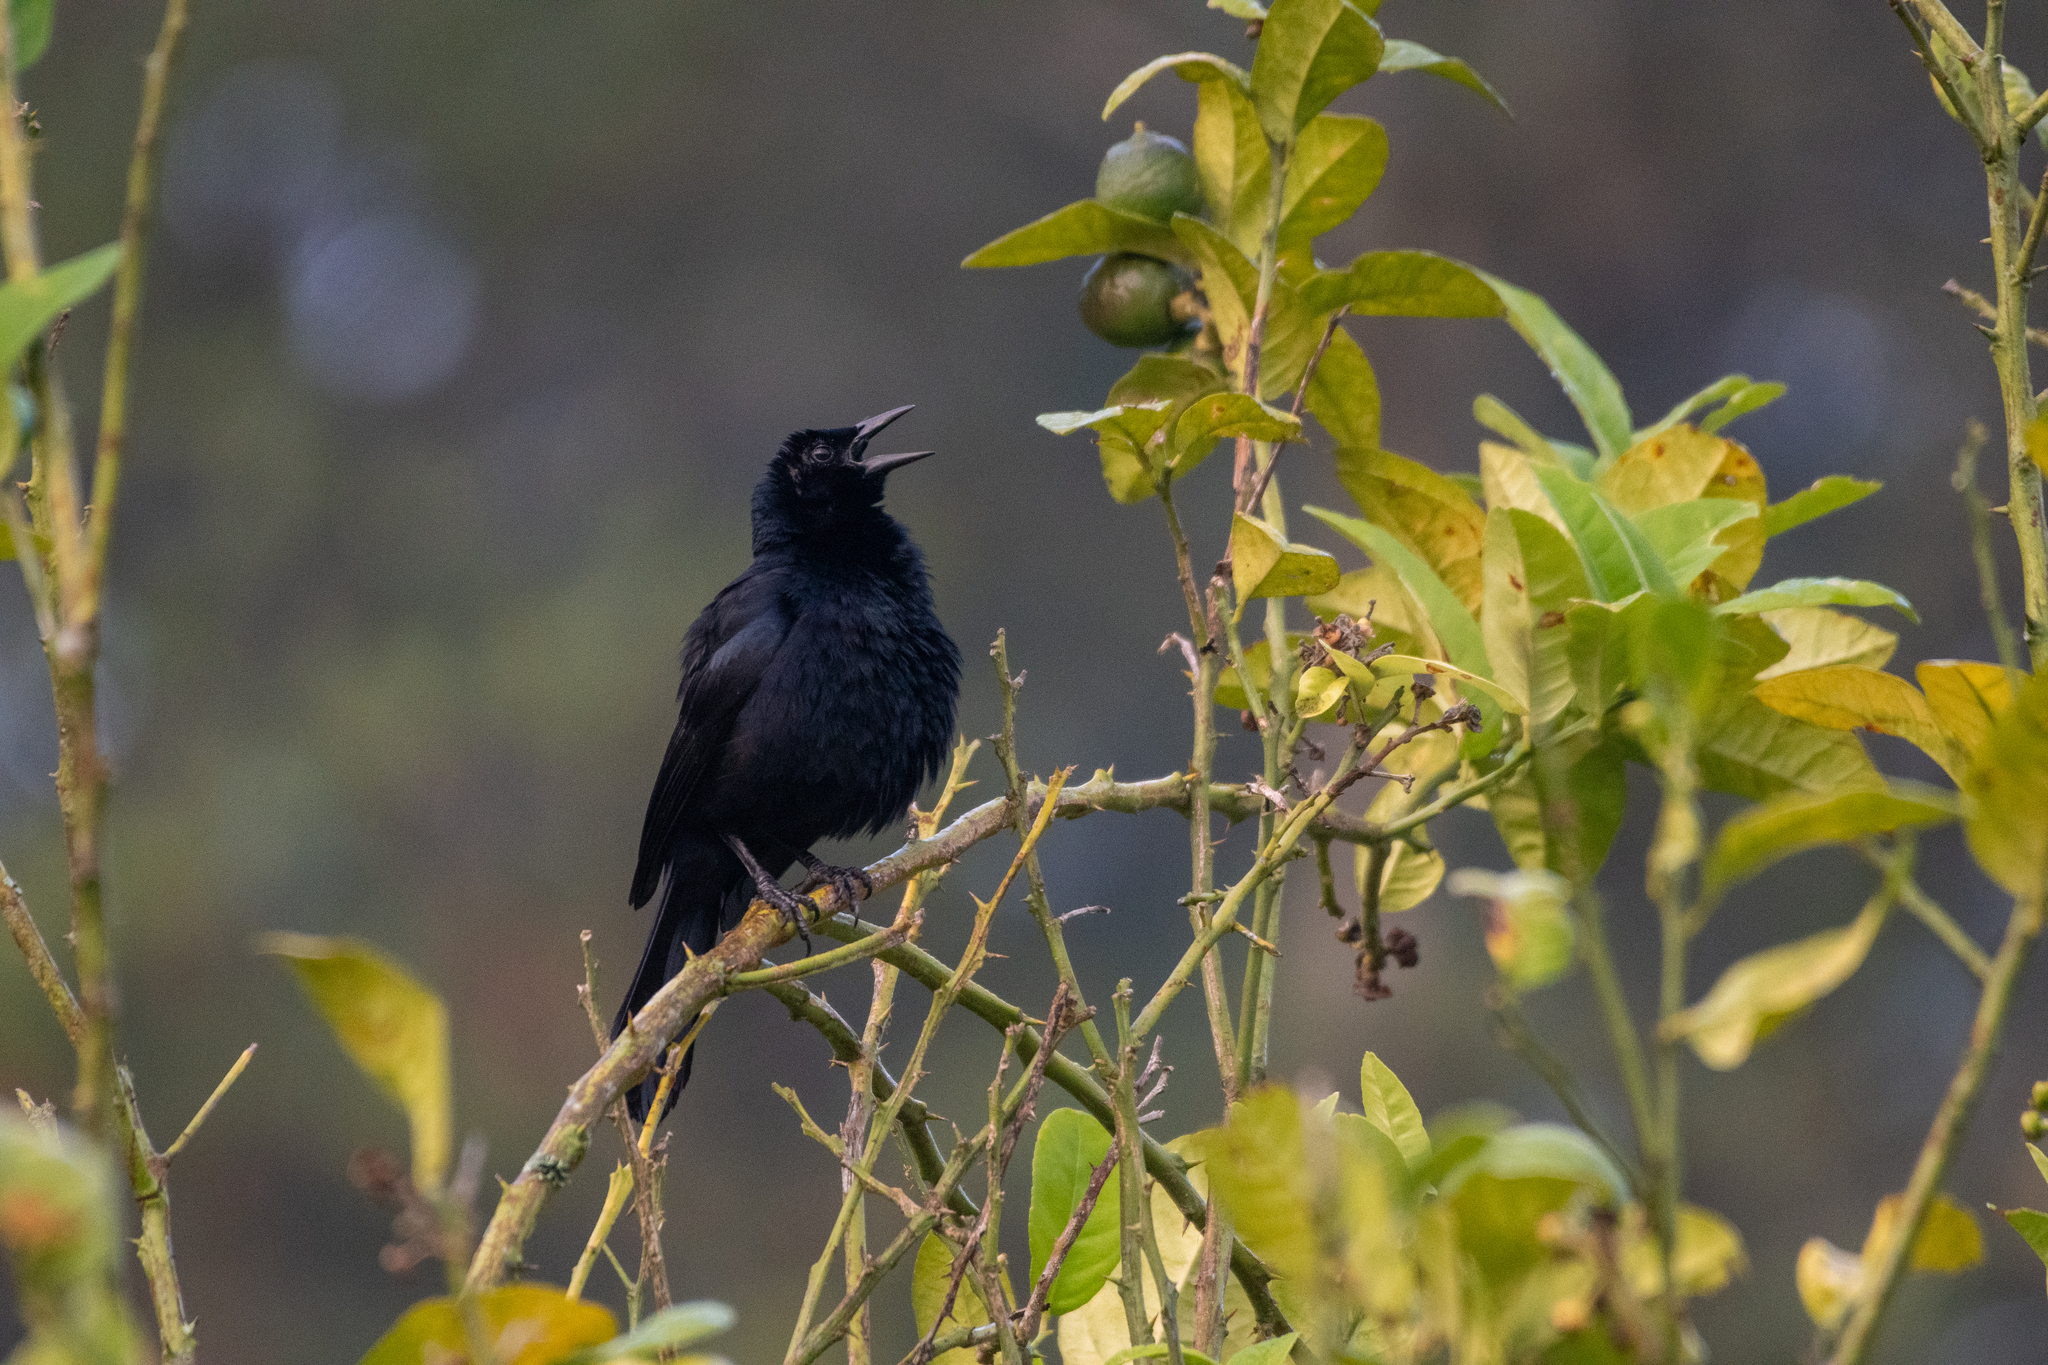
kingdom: Animalia
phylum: Chordata
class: Aves
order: Passeriformes
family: Icteridae
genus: Dives
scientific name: Dives dives
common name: Melodious blackbird
